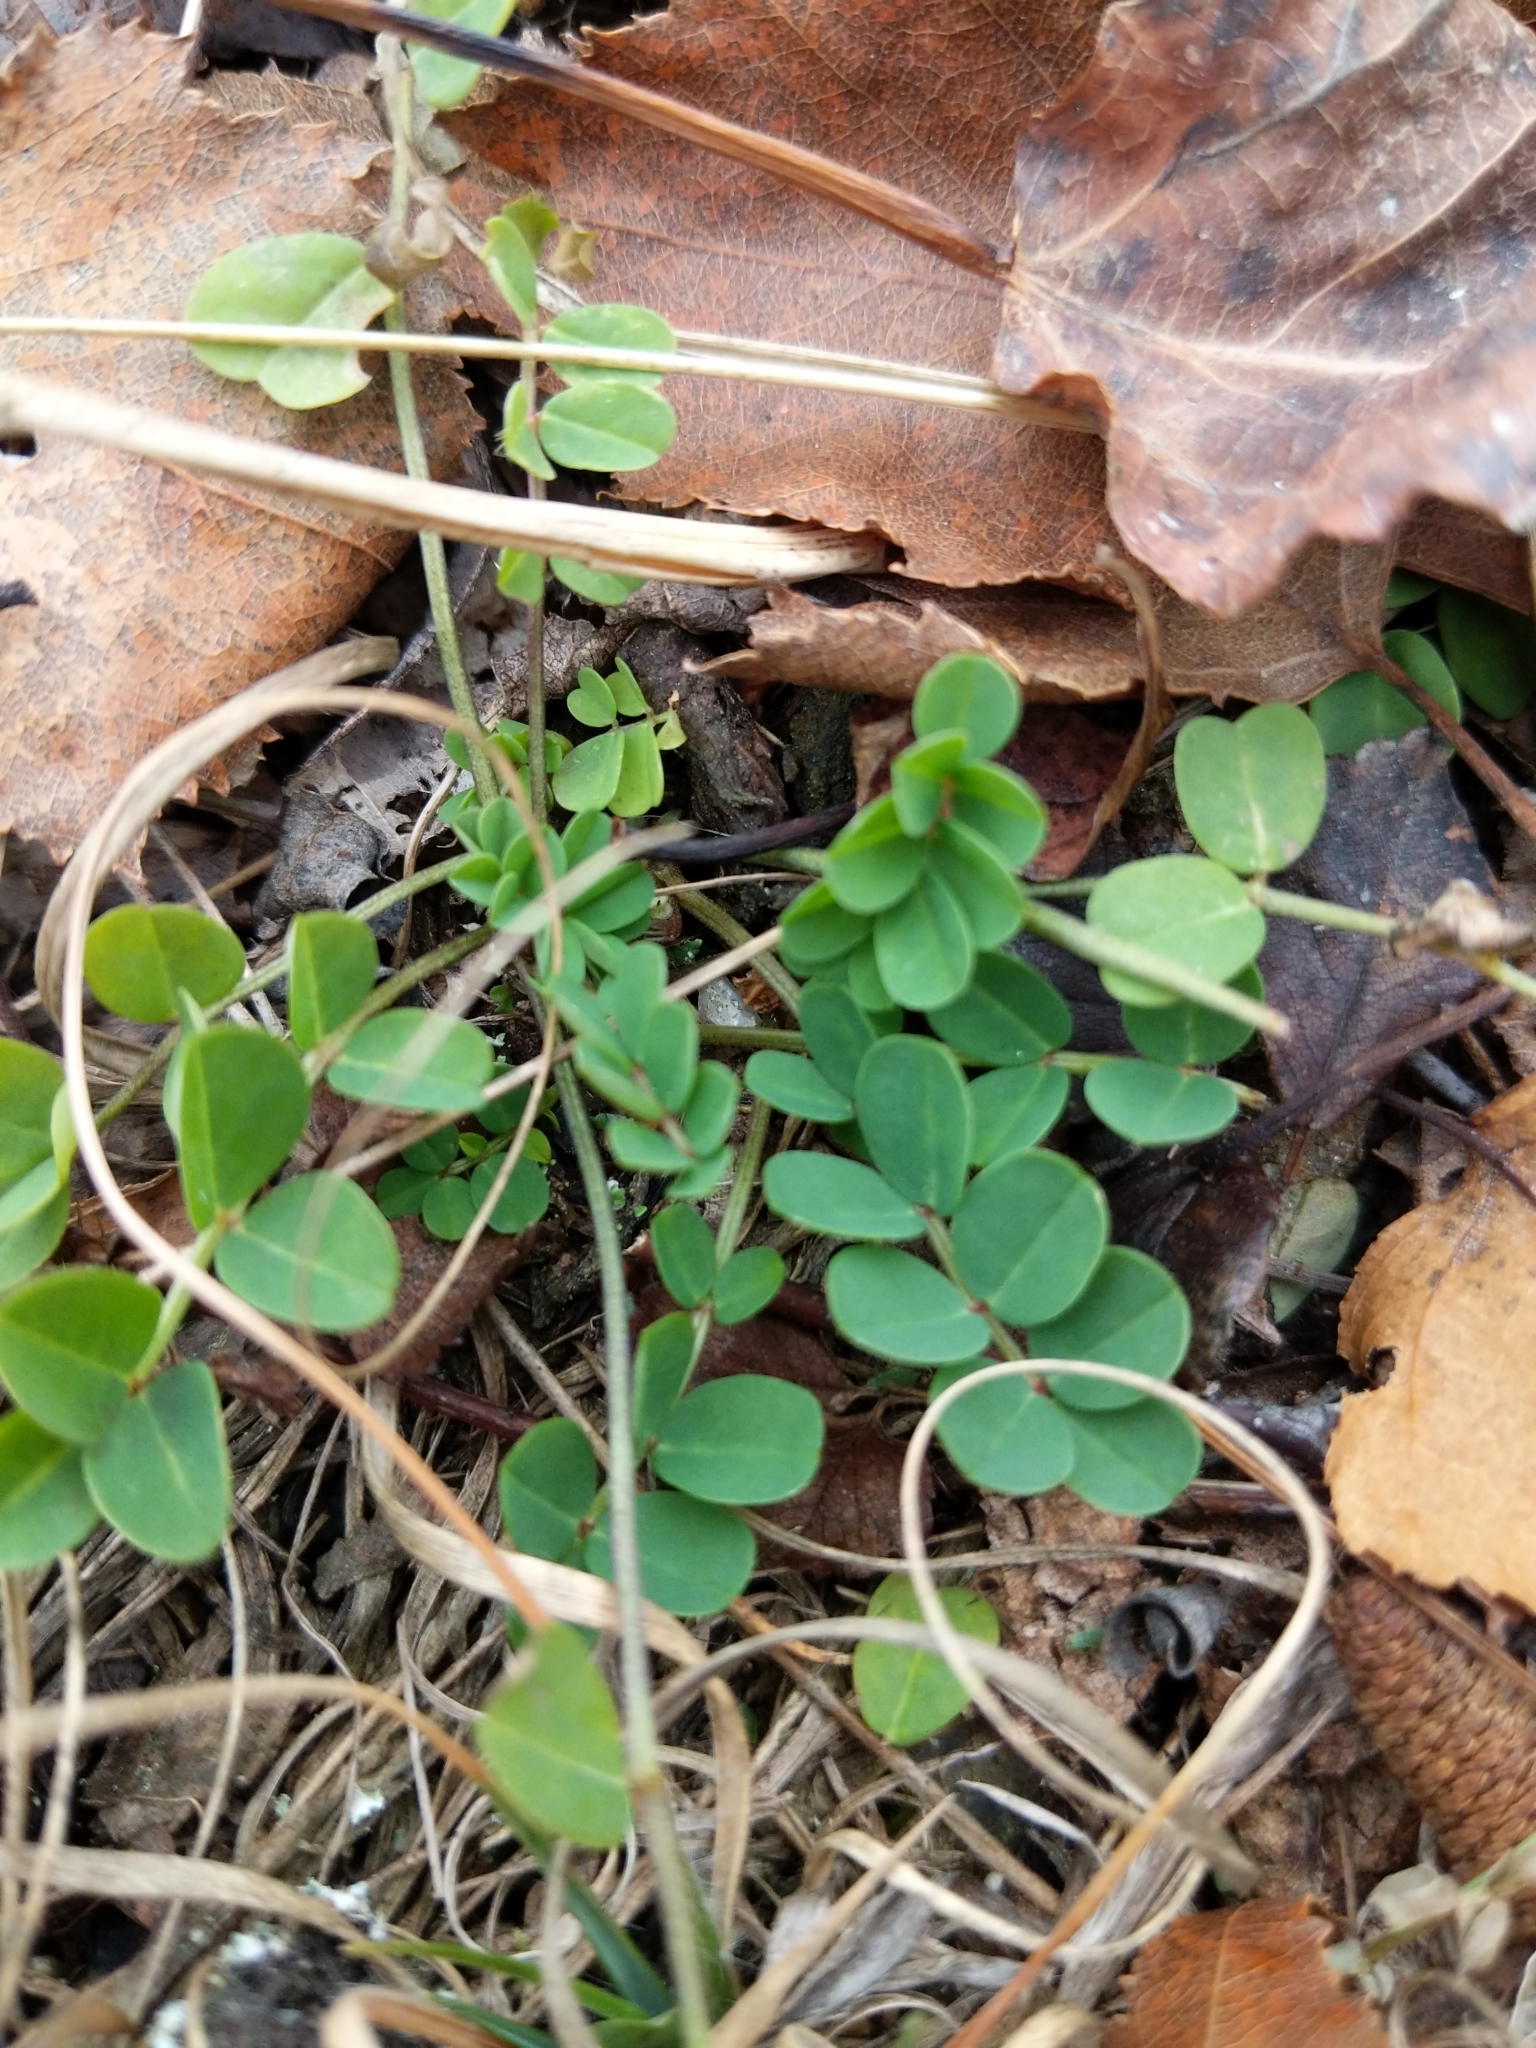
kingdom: Plantae
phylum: Tracheophyta
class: Magnoliopsida
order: Fabales
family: Fabaceae
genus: Coronilla
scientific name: Coronilla varia
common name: Crownvetch
